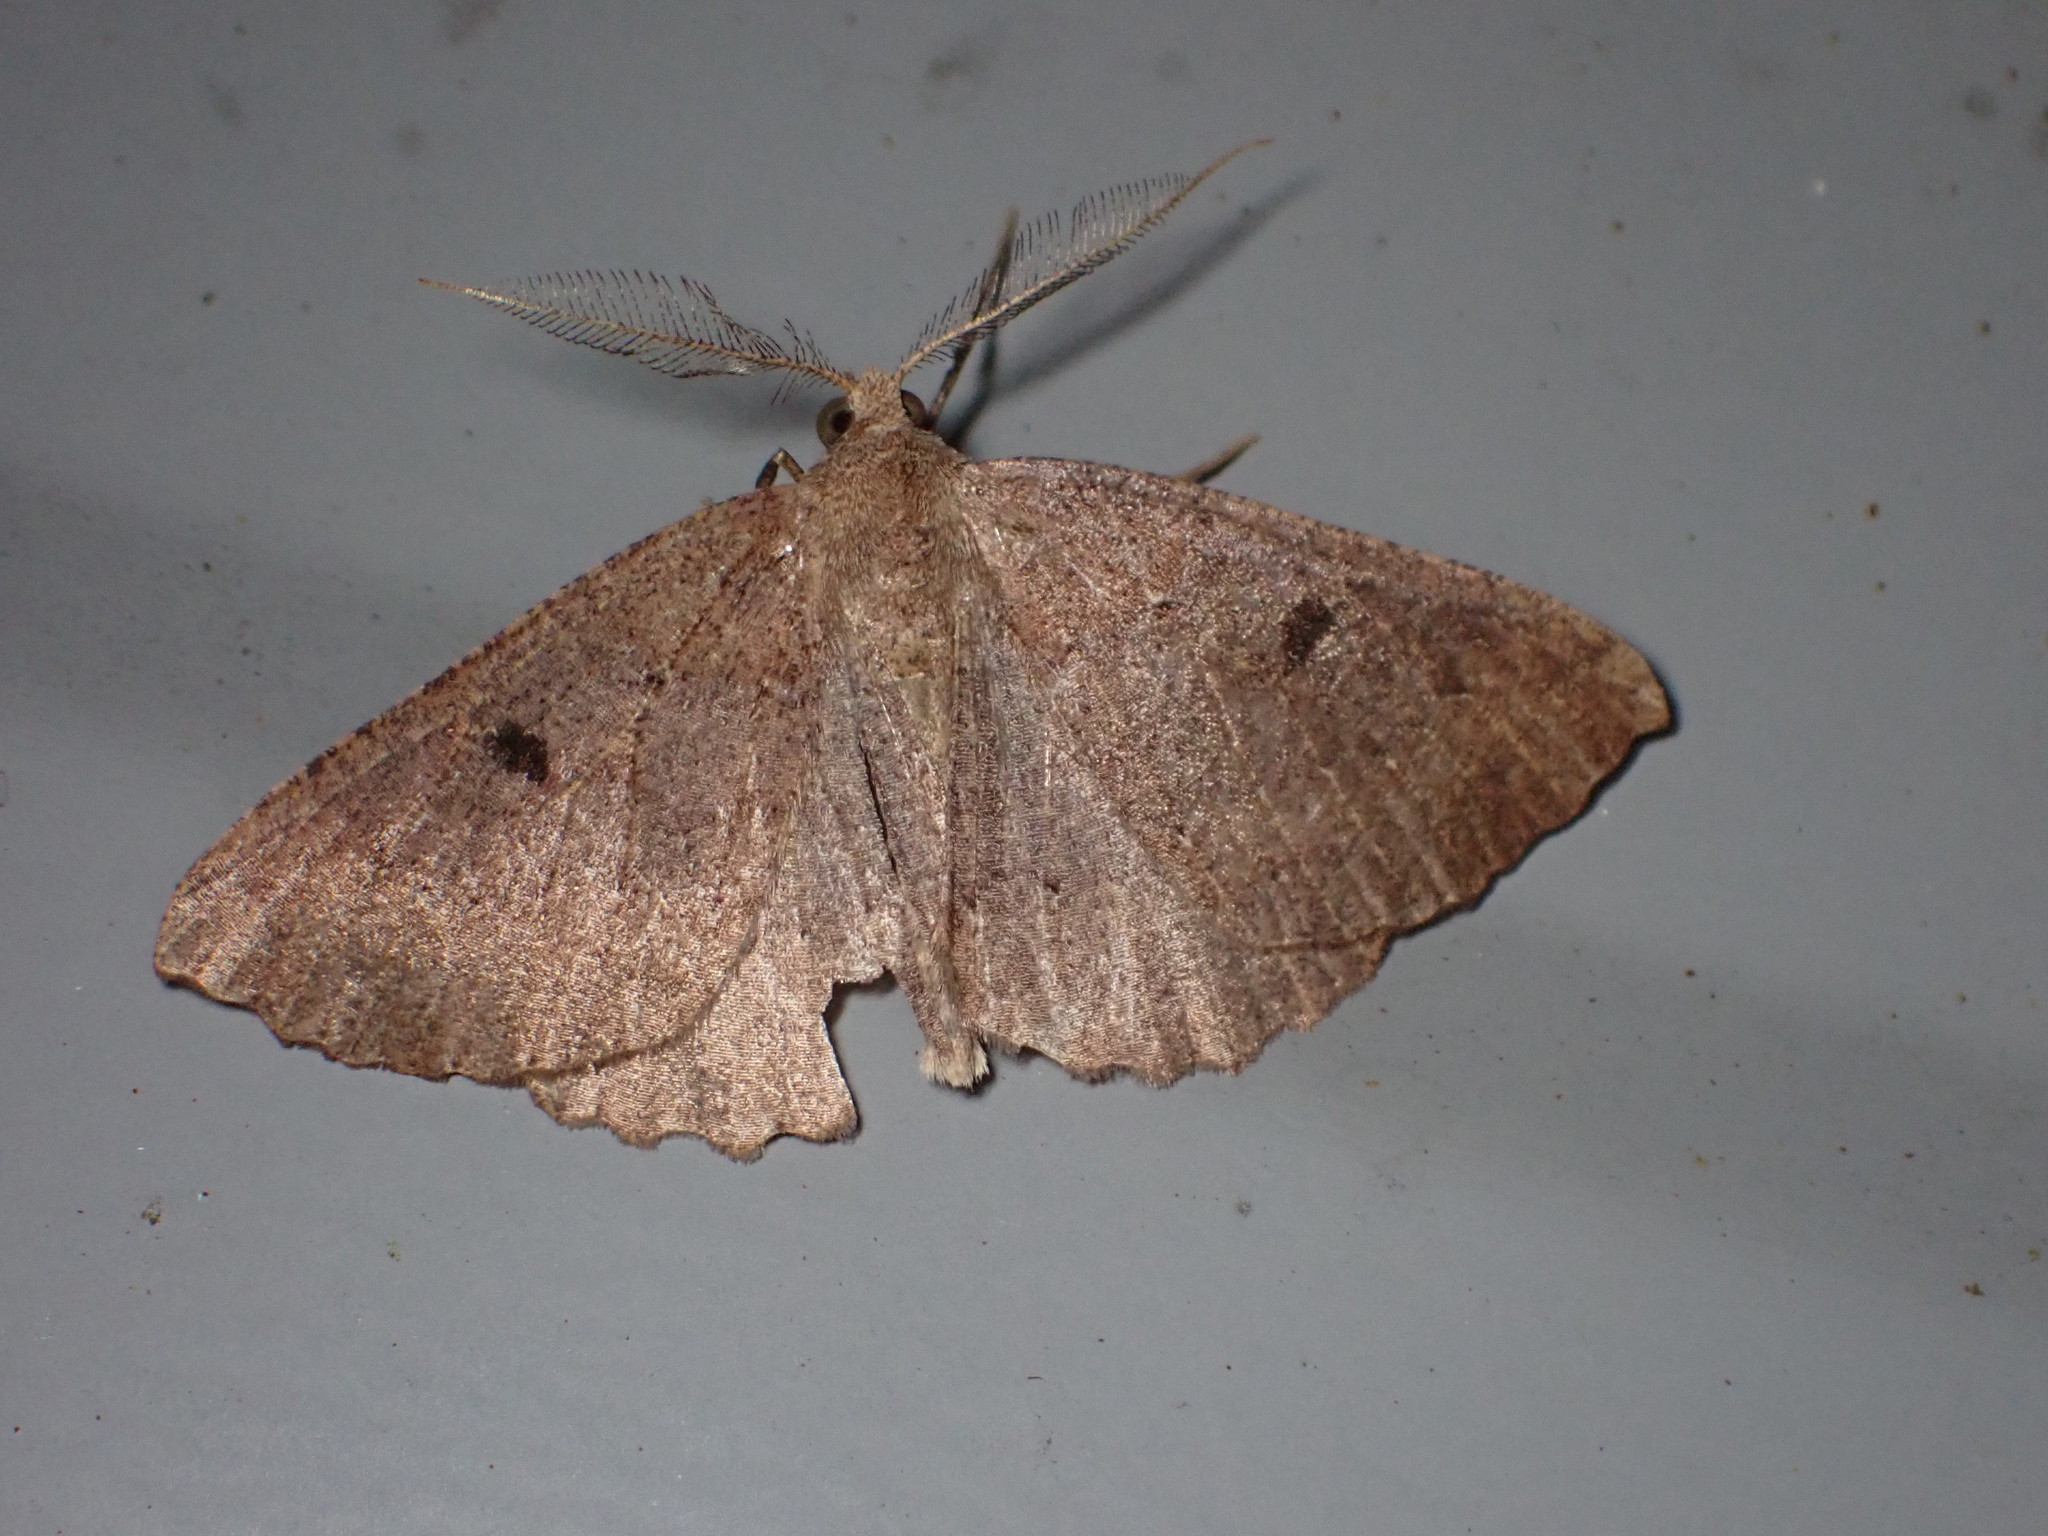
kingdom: Animalia
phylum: Arthropoda
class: Insecta
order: Lepidoptera
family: Geometridae
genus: Cleora
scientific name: Cleora scriptaria
